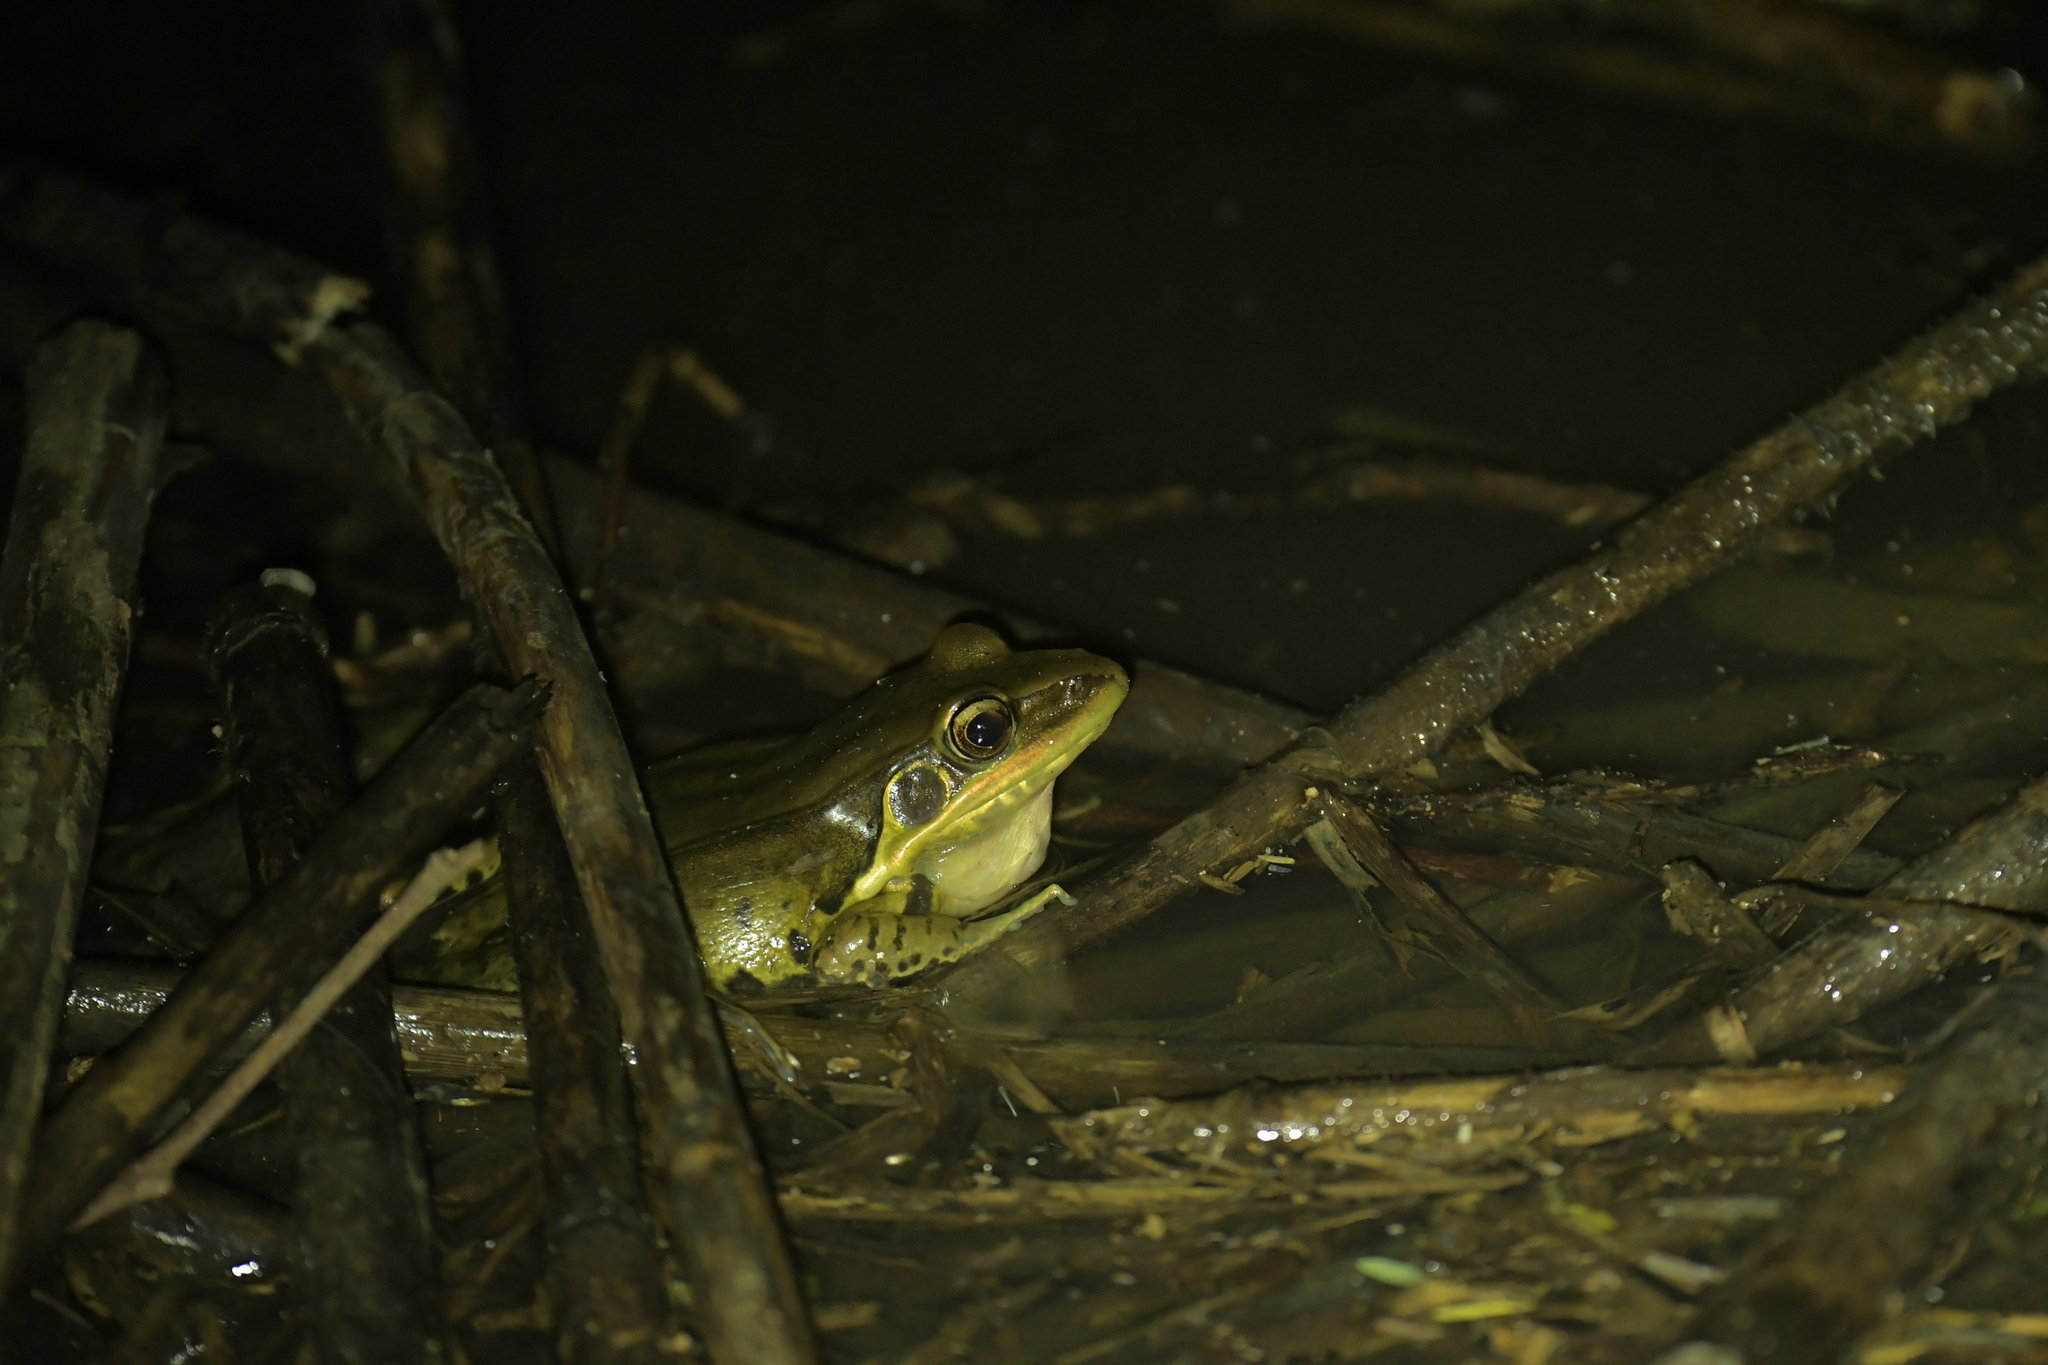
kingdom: Animalia
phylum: Chordata
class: Amphibia
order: Anura
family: Ranidae
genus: Sylvirana
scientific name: Sylvirana guentheri
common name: Guenther's amoy frog
